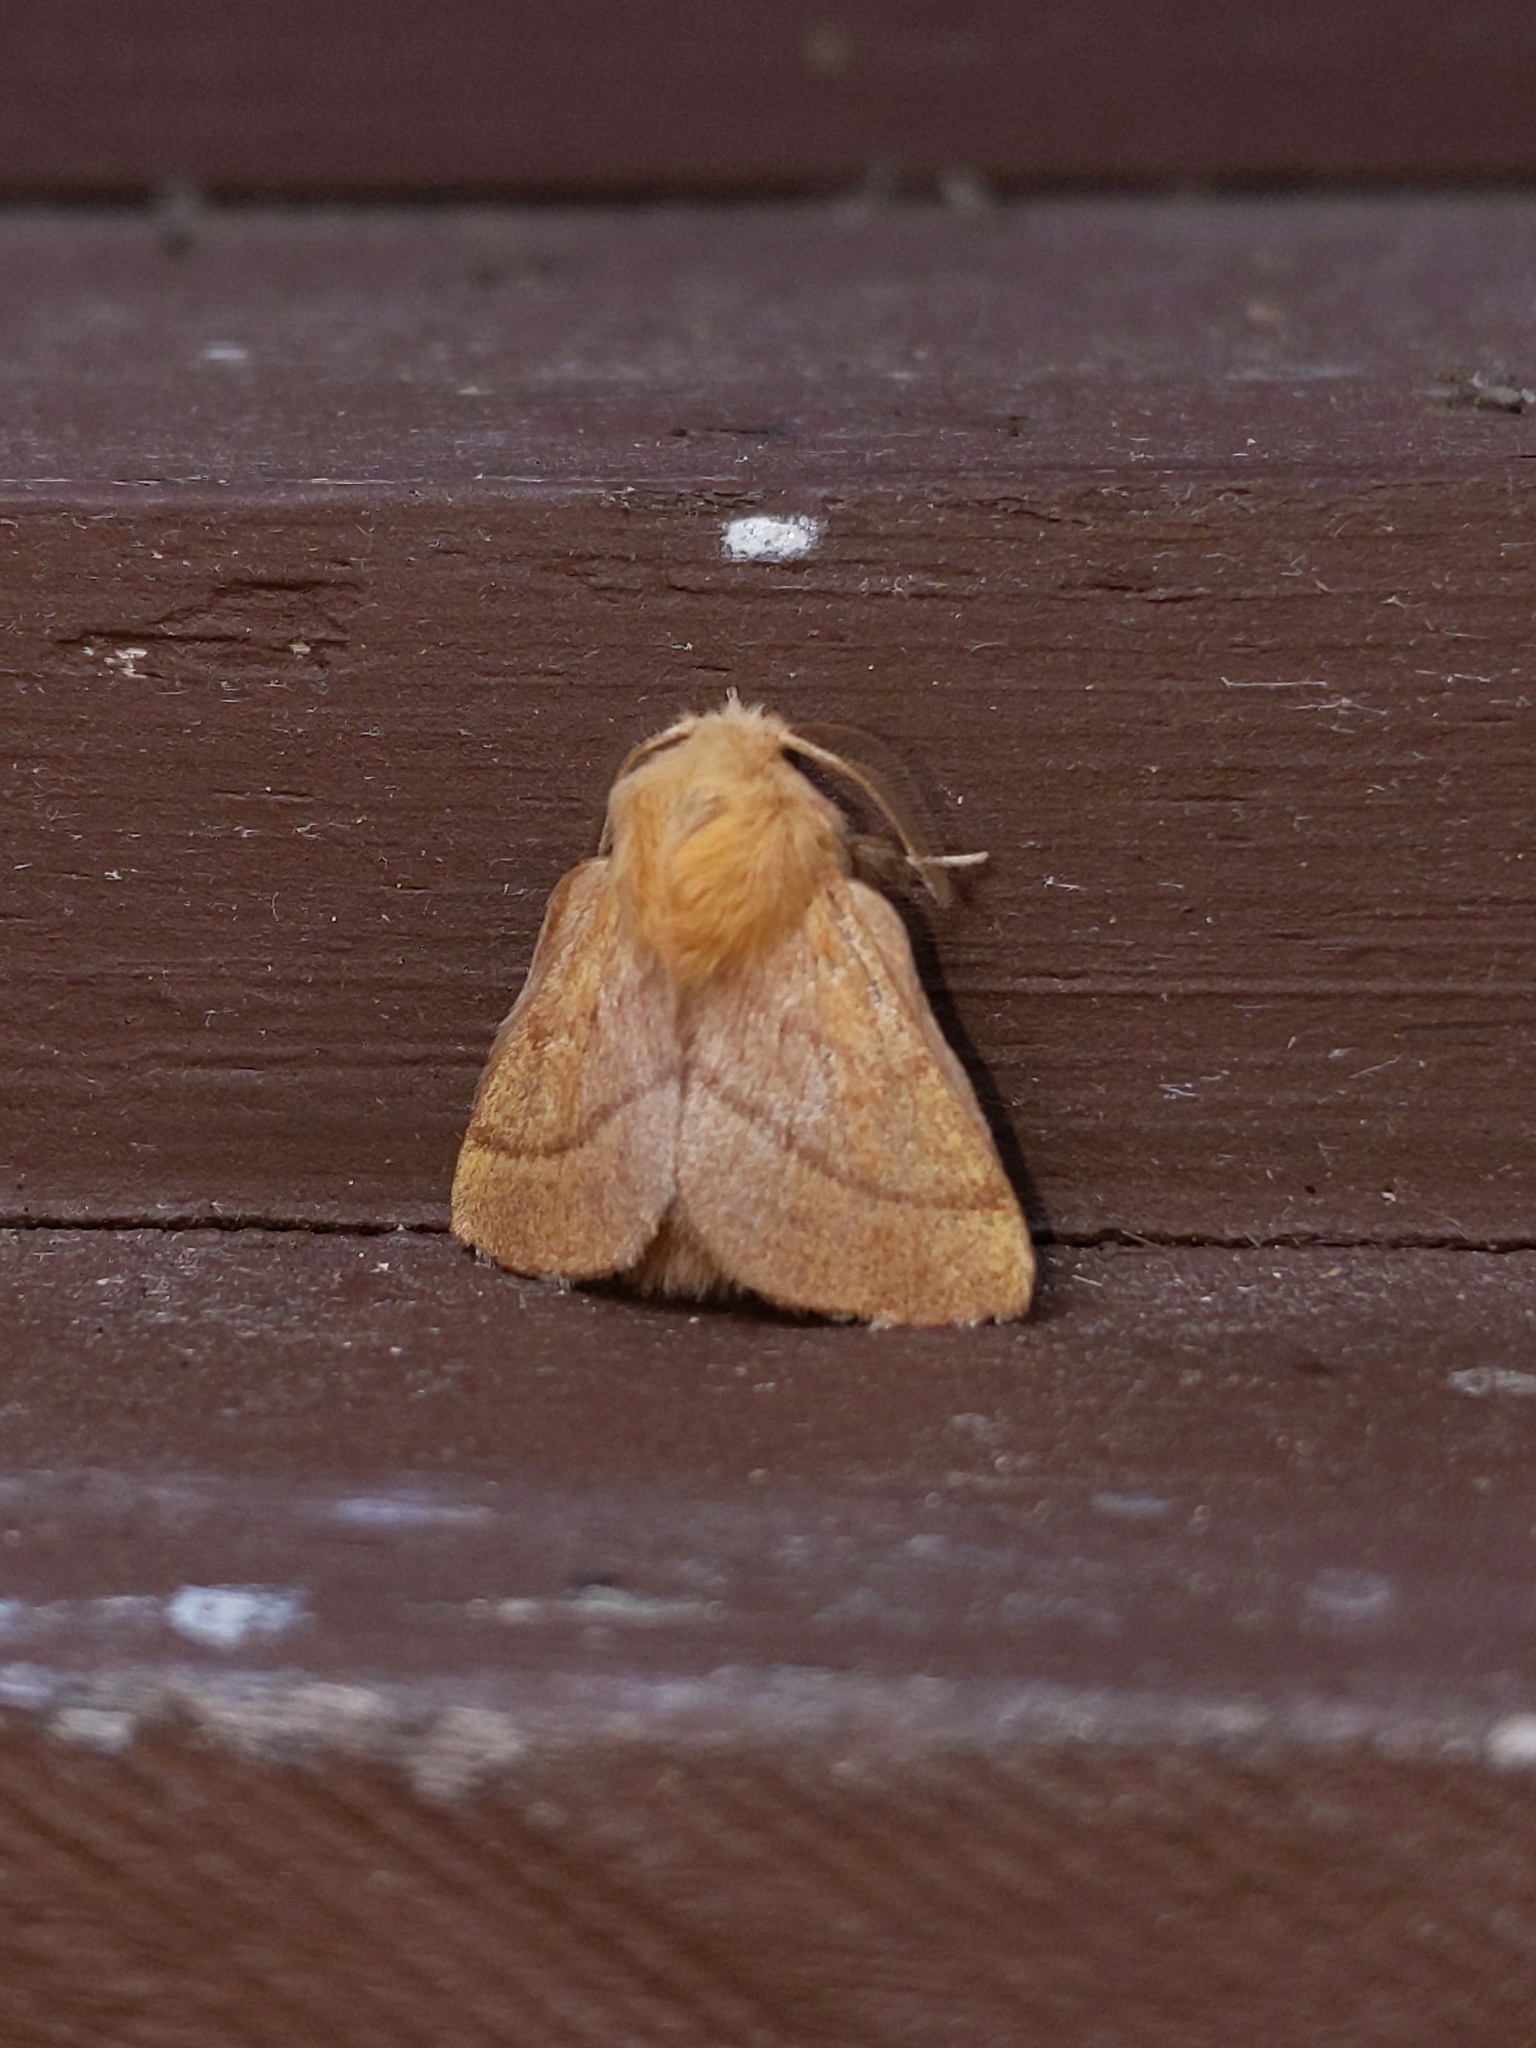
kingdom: Animalia
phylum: Arthropoda
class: Insecta
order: Lepidoptera
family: Lasiocampidae
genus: Malacosoma
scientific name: Malacosoma disstria
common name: Forest tent caterpillar
